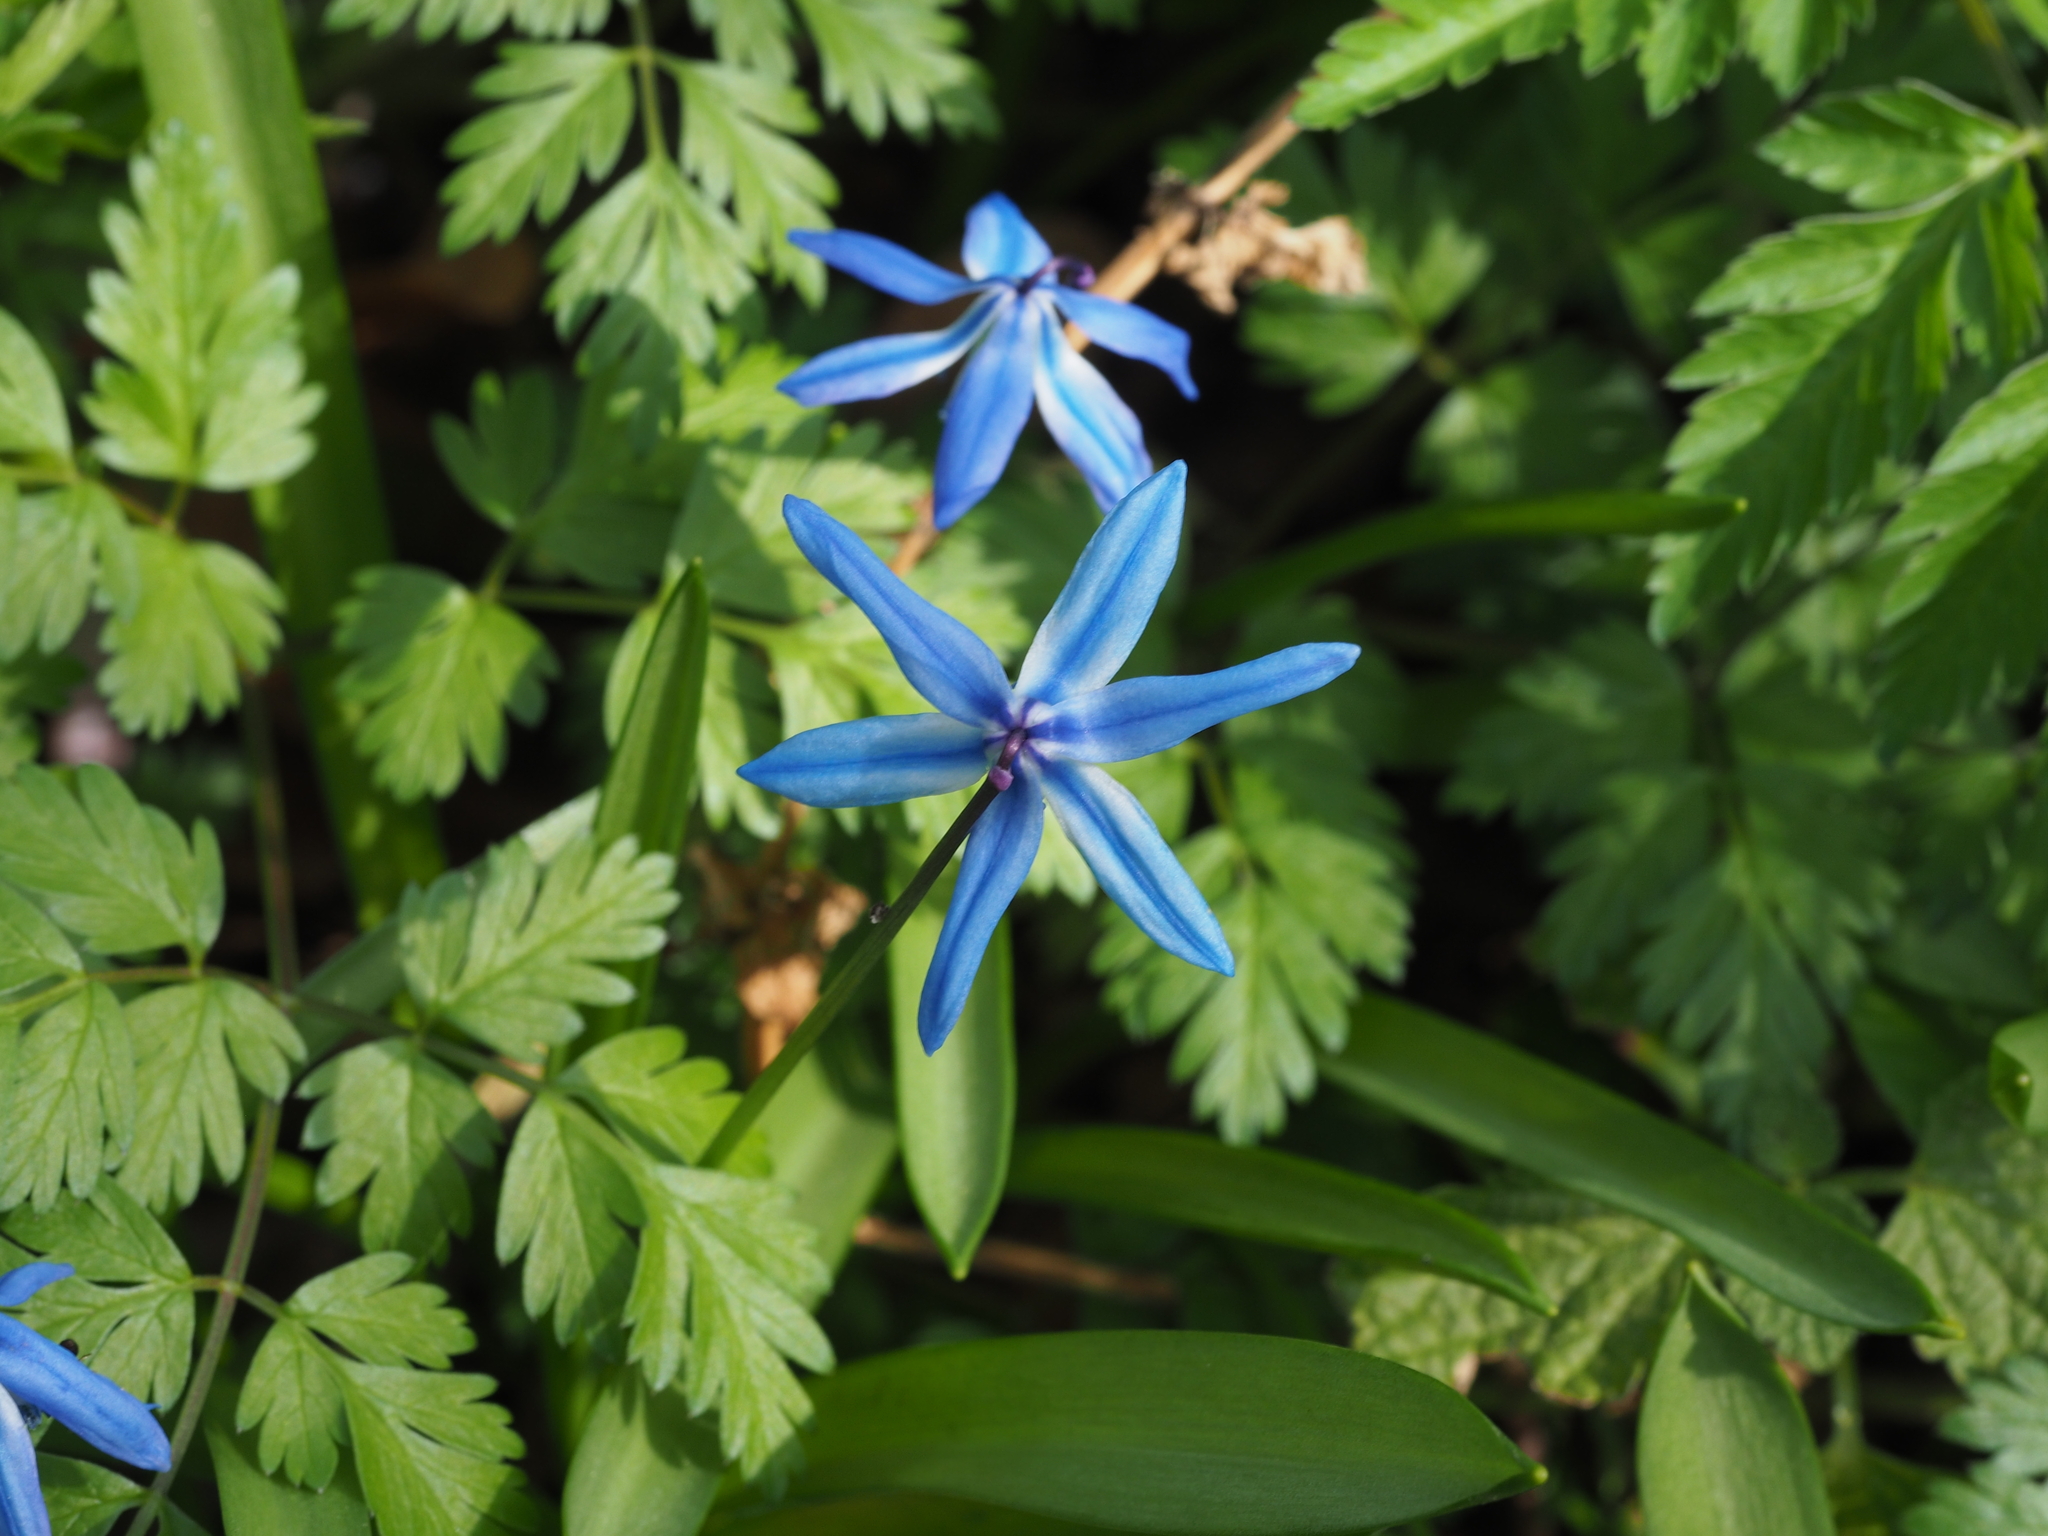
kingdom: Plantae
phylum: Tracheophyta
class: Liliopsida
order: Asparagales
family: Asparagaceae
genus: Scilla
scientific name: Scilla siberica
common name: Siberian squill
